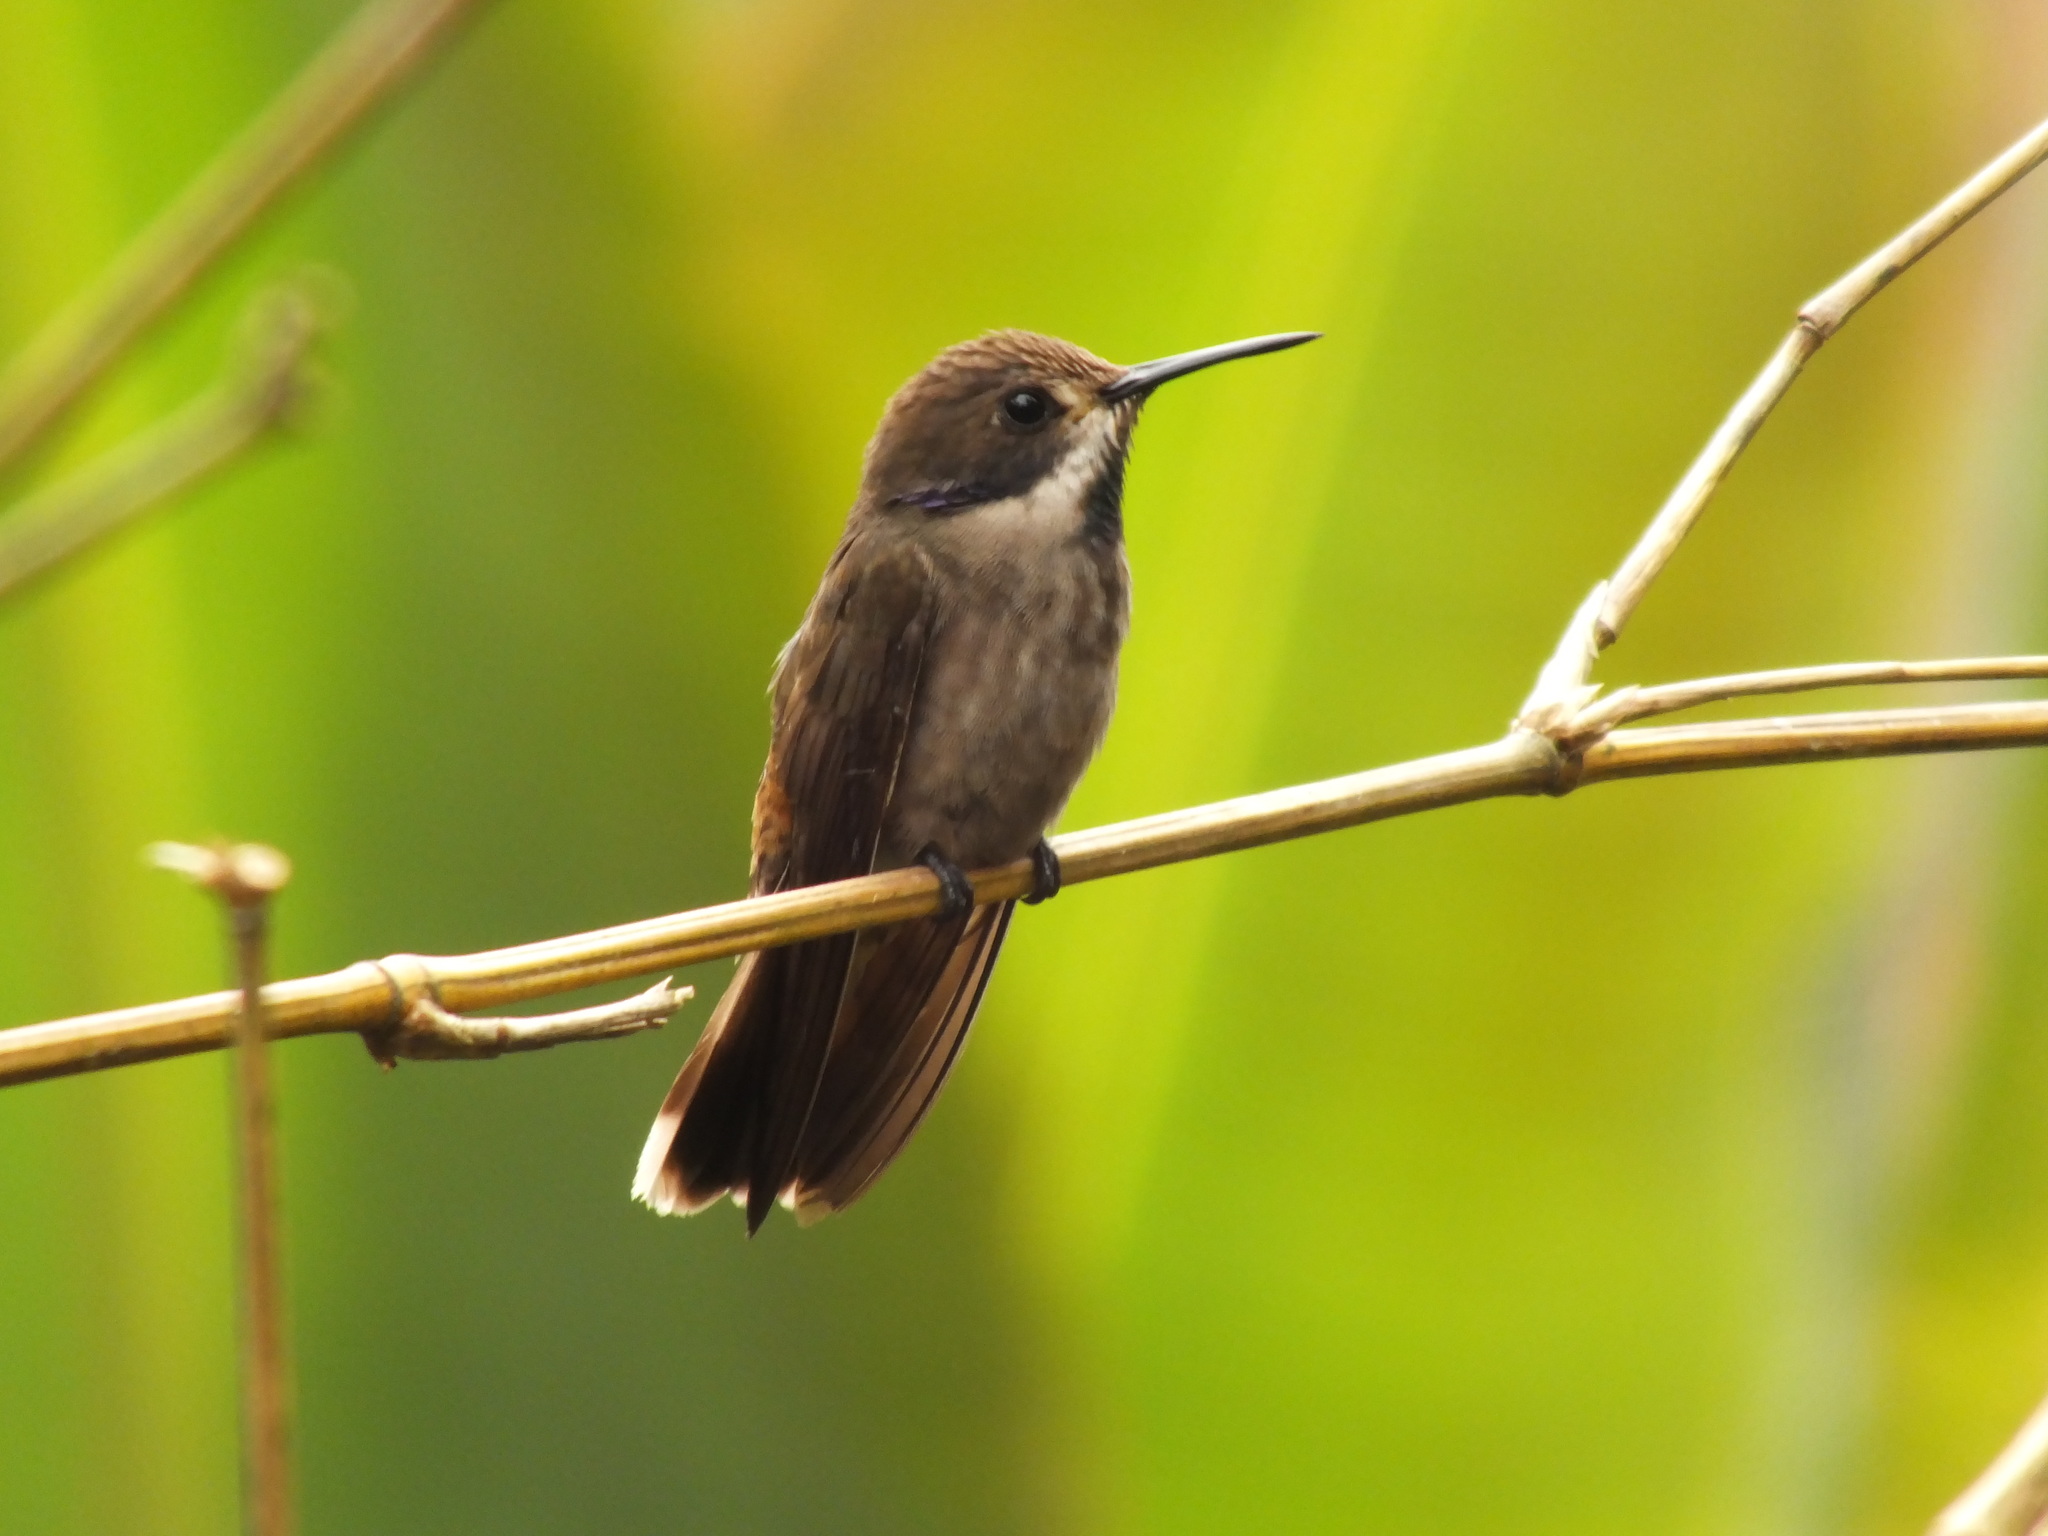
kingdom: Animalia
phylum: Chordata
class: Aves
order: Apodiformes
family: Trochilidae
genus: Colibri
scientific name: Colibri delphinae
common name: Brown violetear
